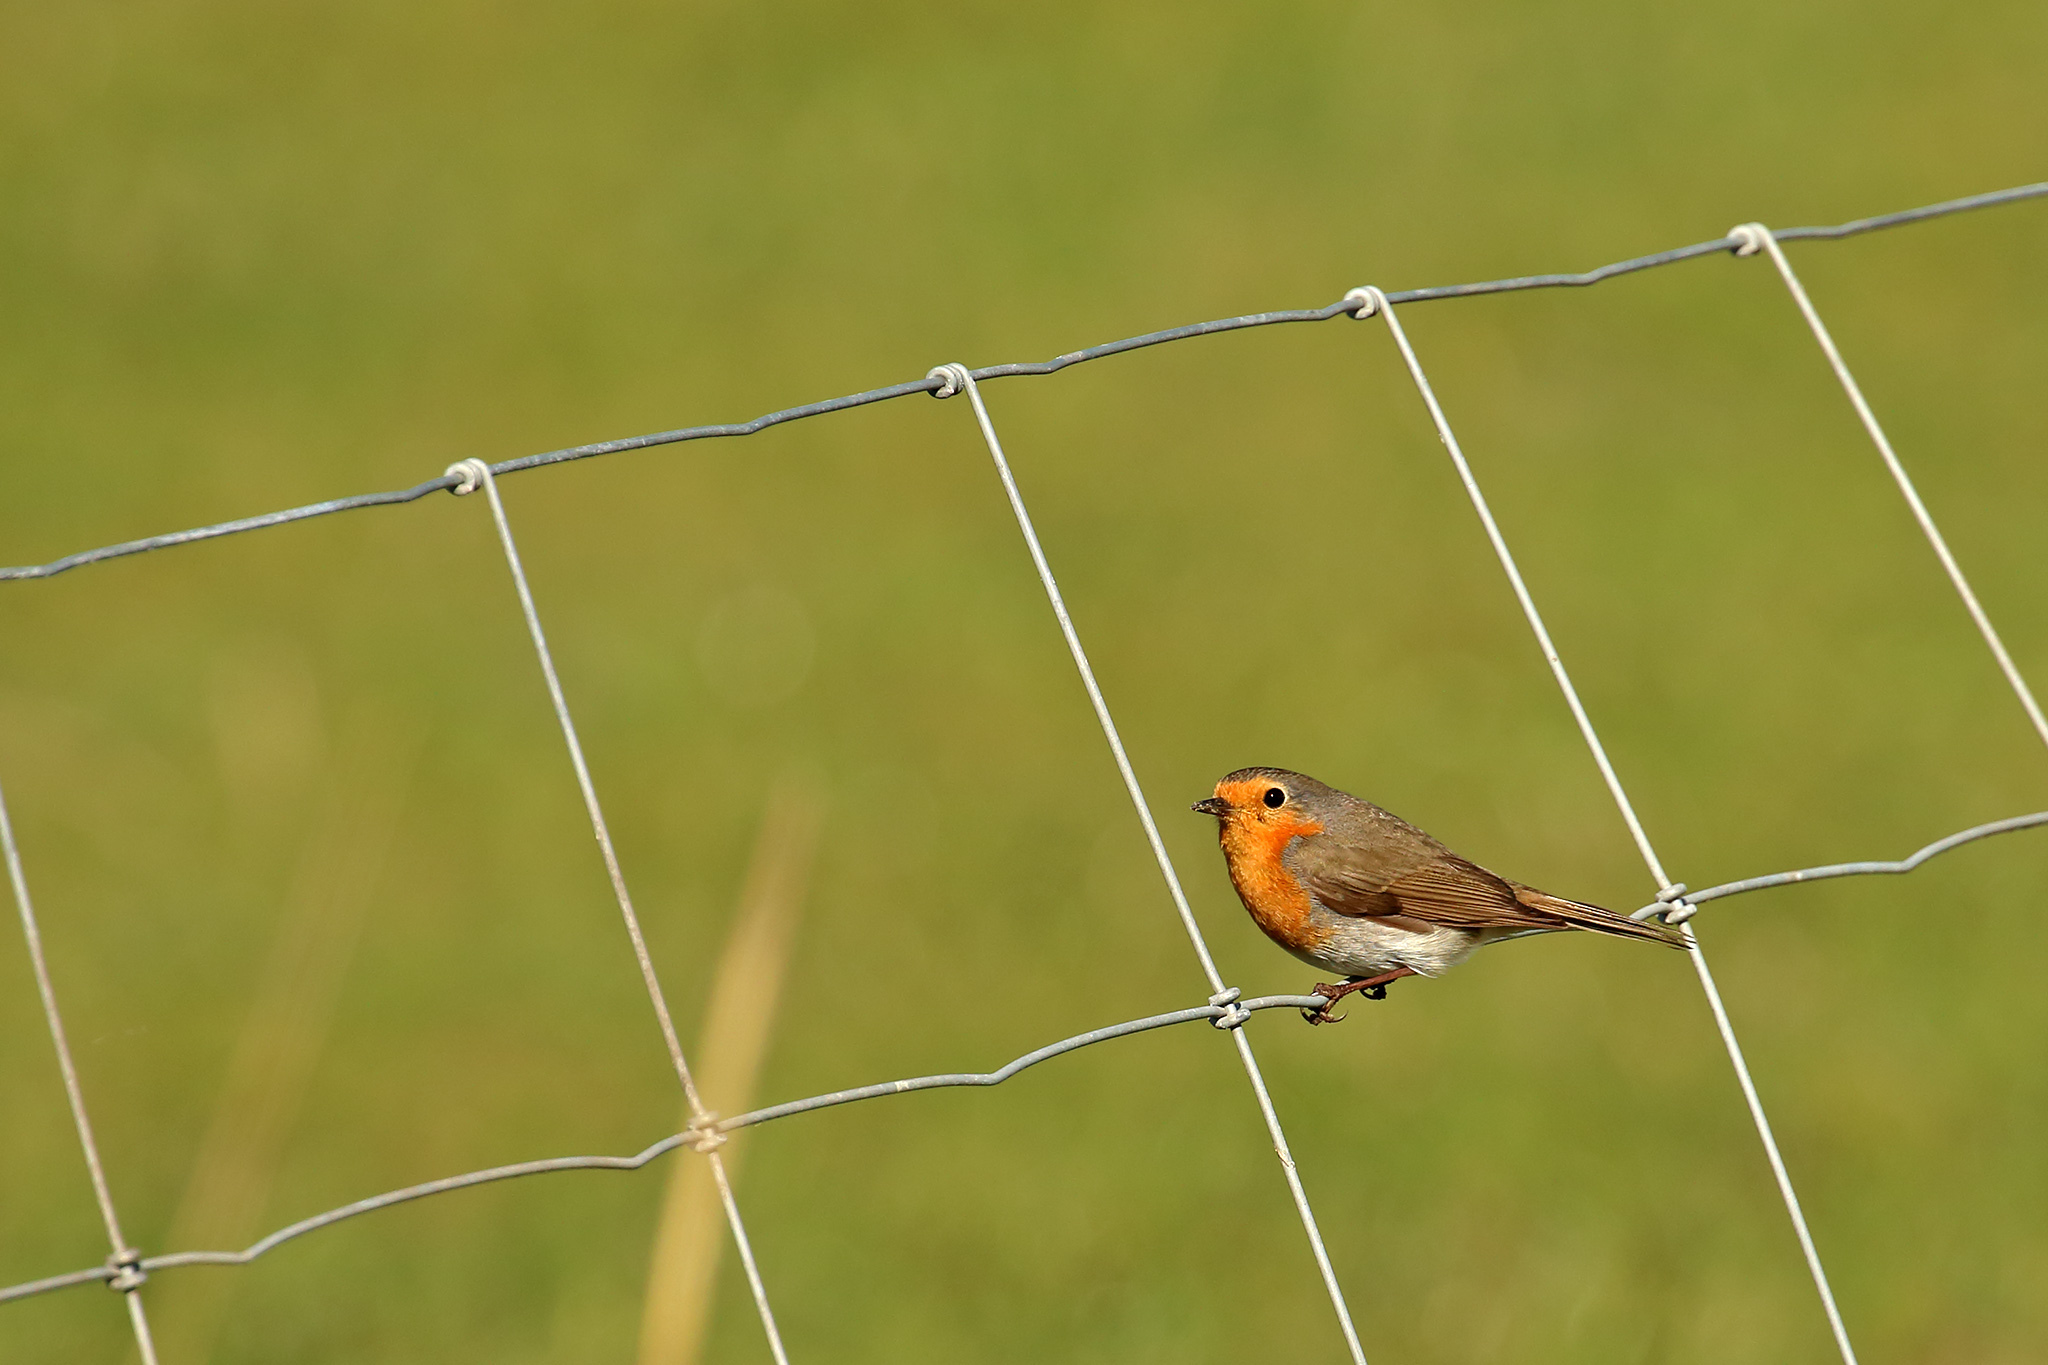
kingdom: Animalia
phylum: Chordata
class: Aves
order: Passeriformes
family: Muscicapidae
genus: Erithacus
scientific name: Erithacus rubecula
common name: European robin
